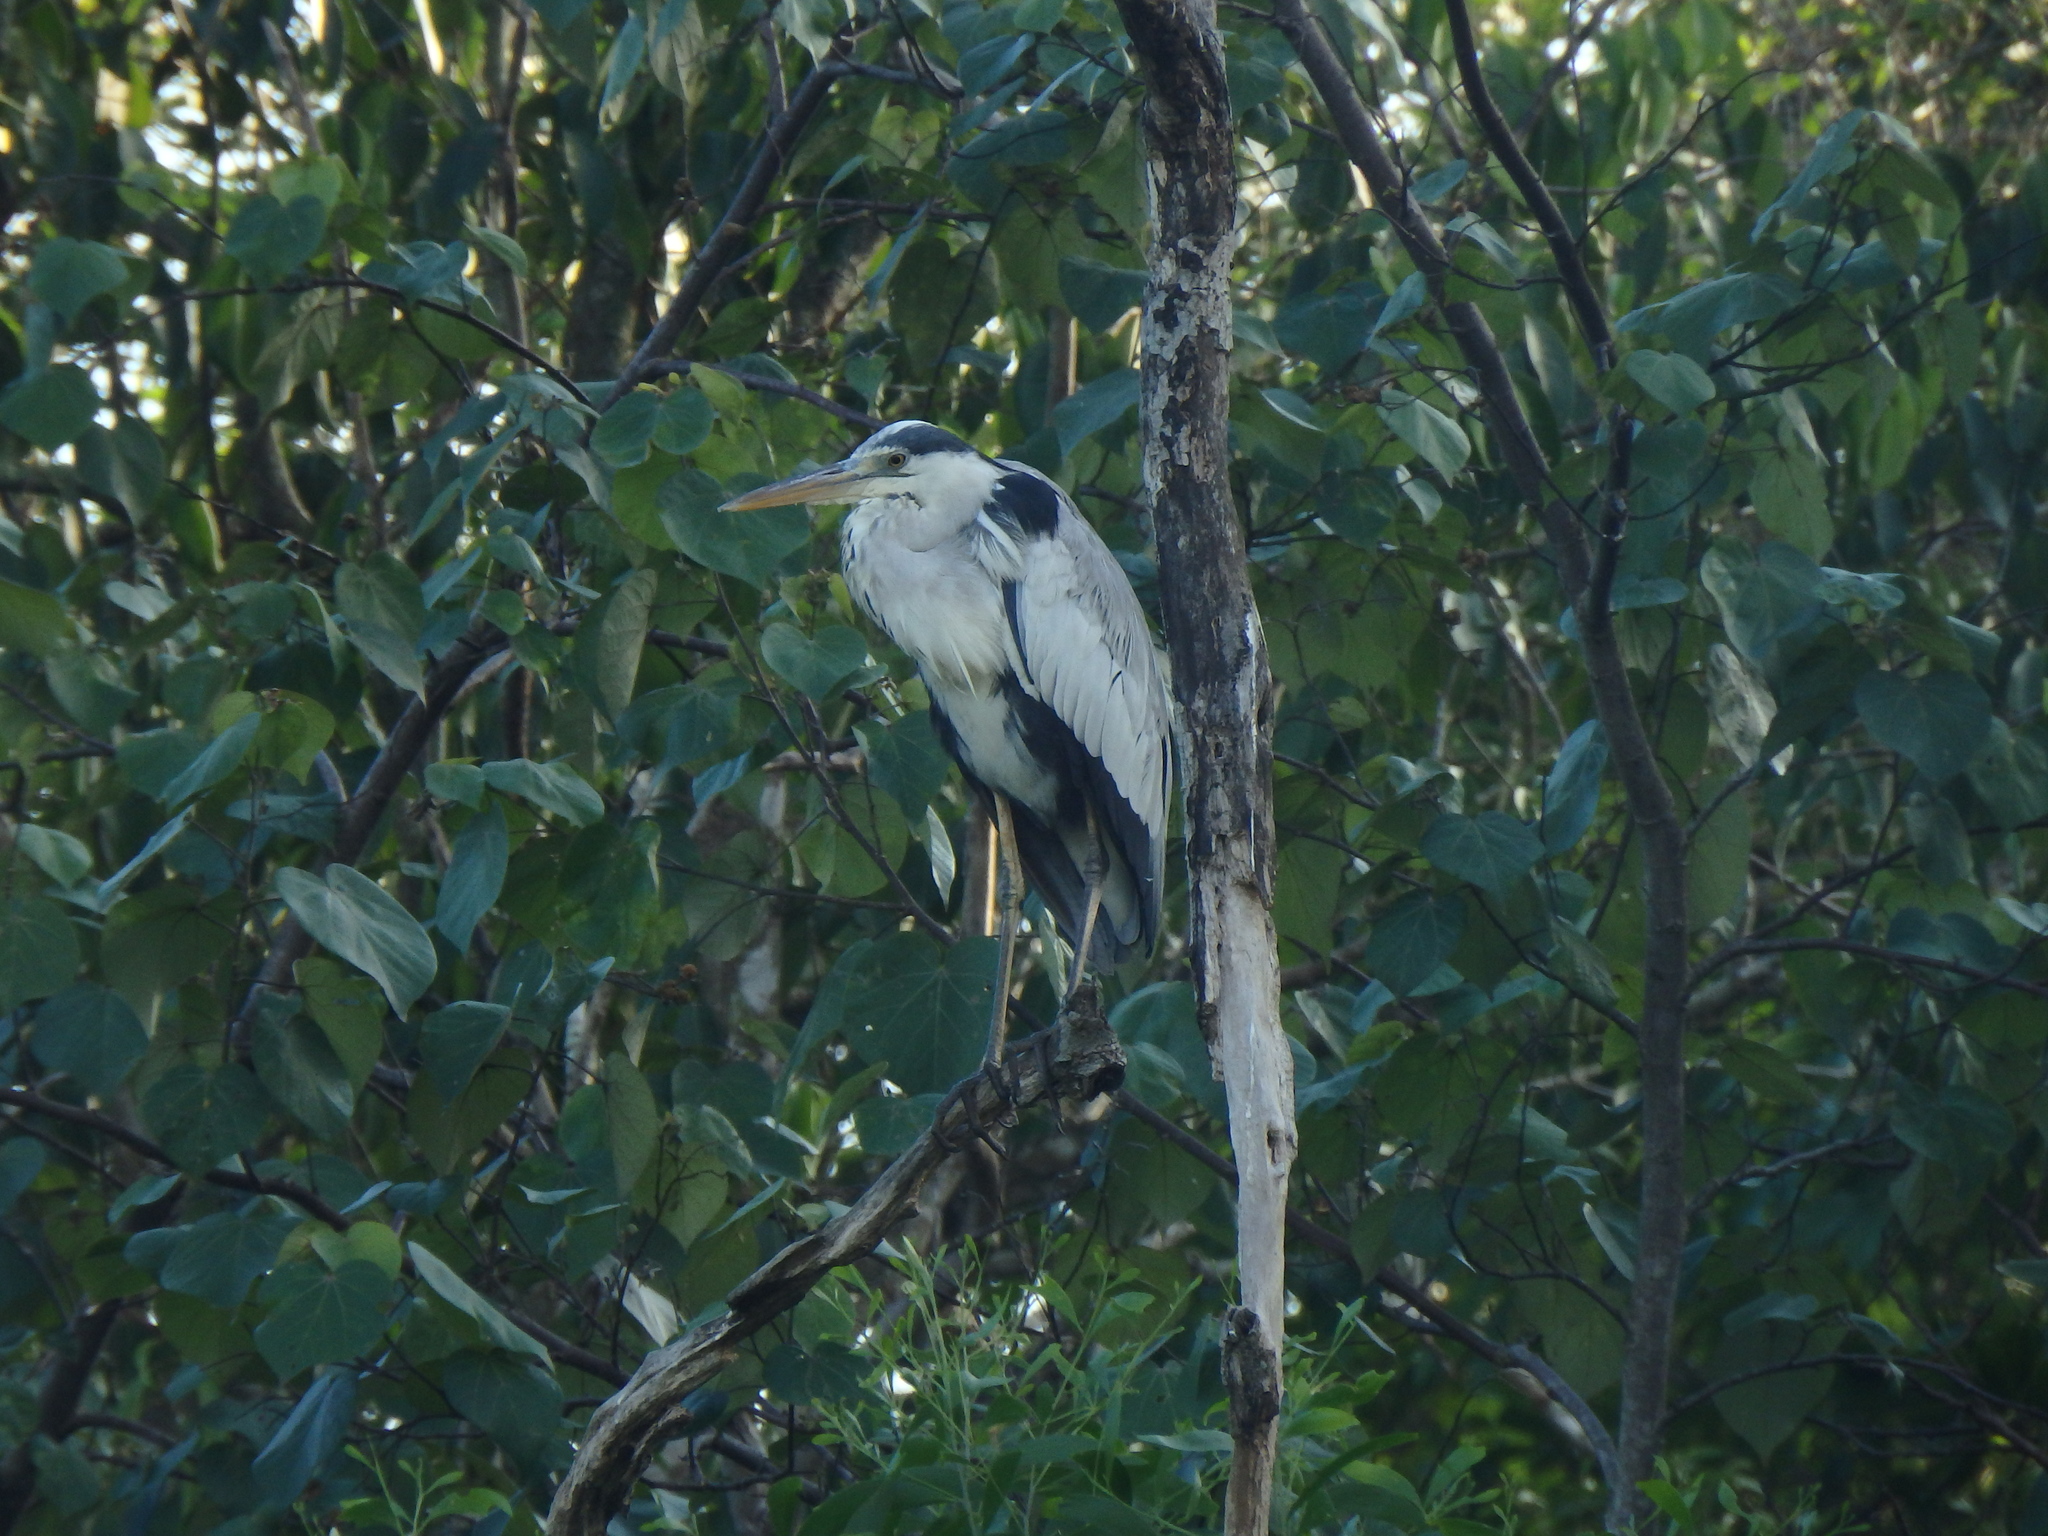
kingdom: Animalia
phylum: Chordata
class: Aves
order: Pelecaniformes
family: Ardeidae
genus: Ardea
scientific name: Ardea cinerea
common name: Grey heron
